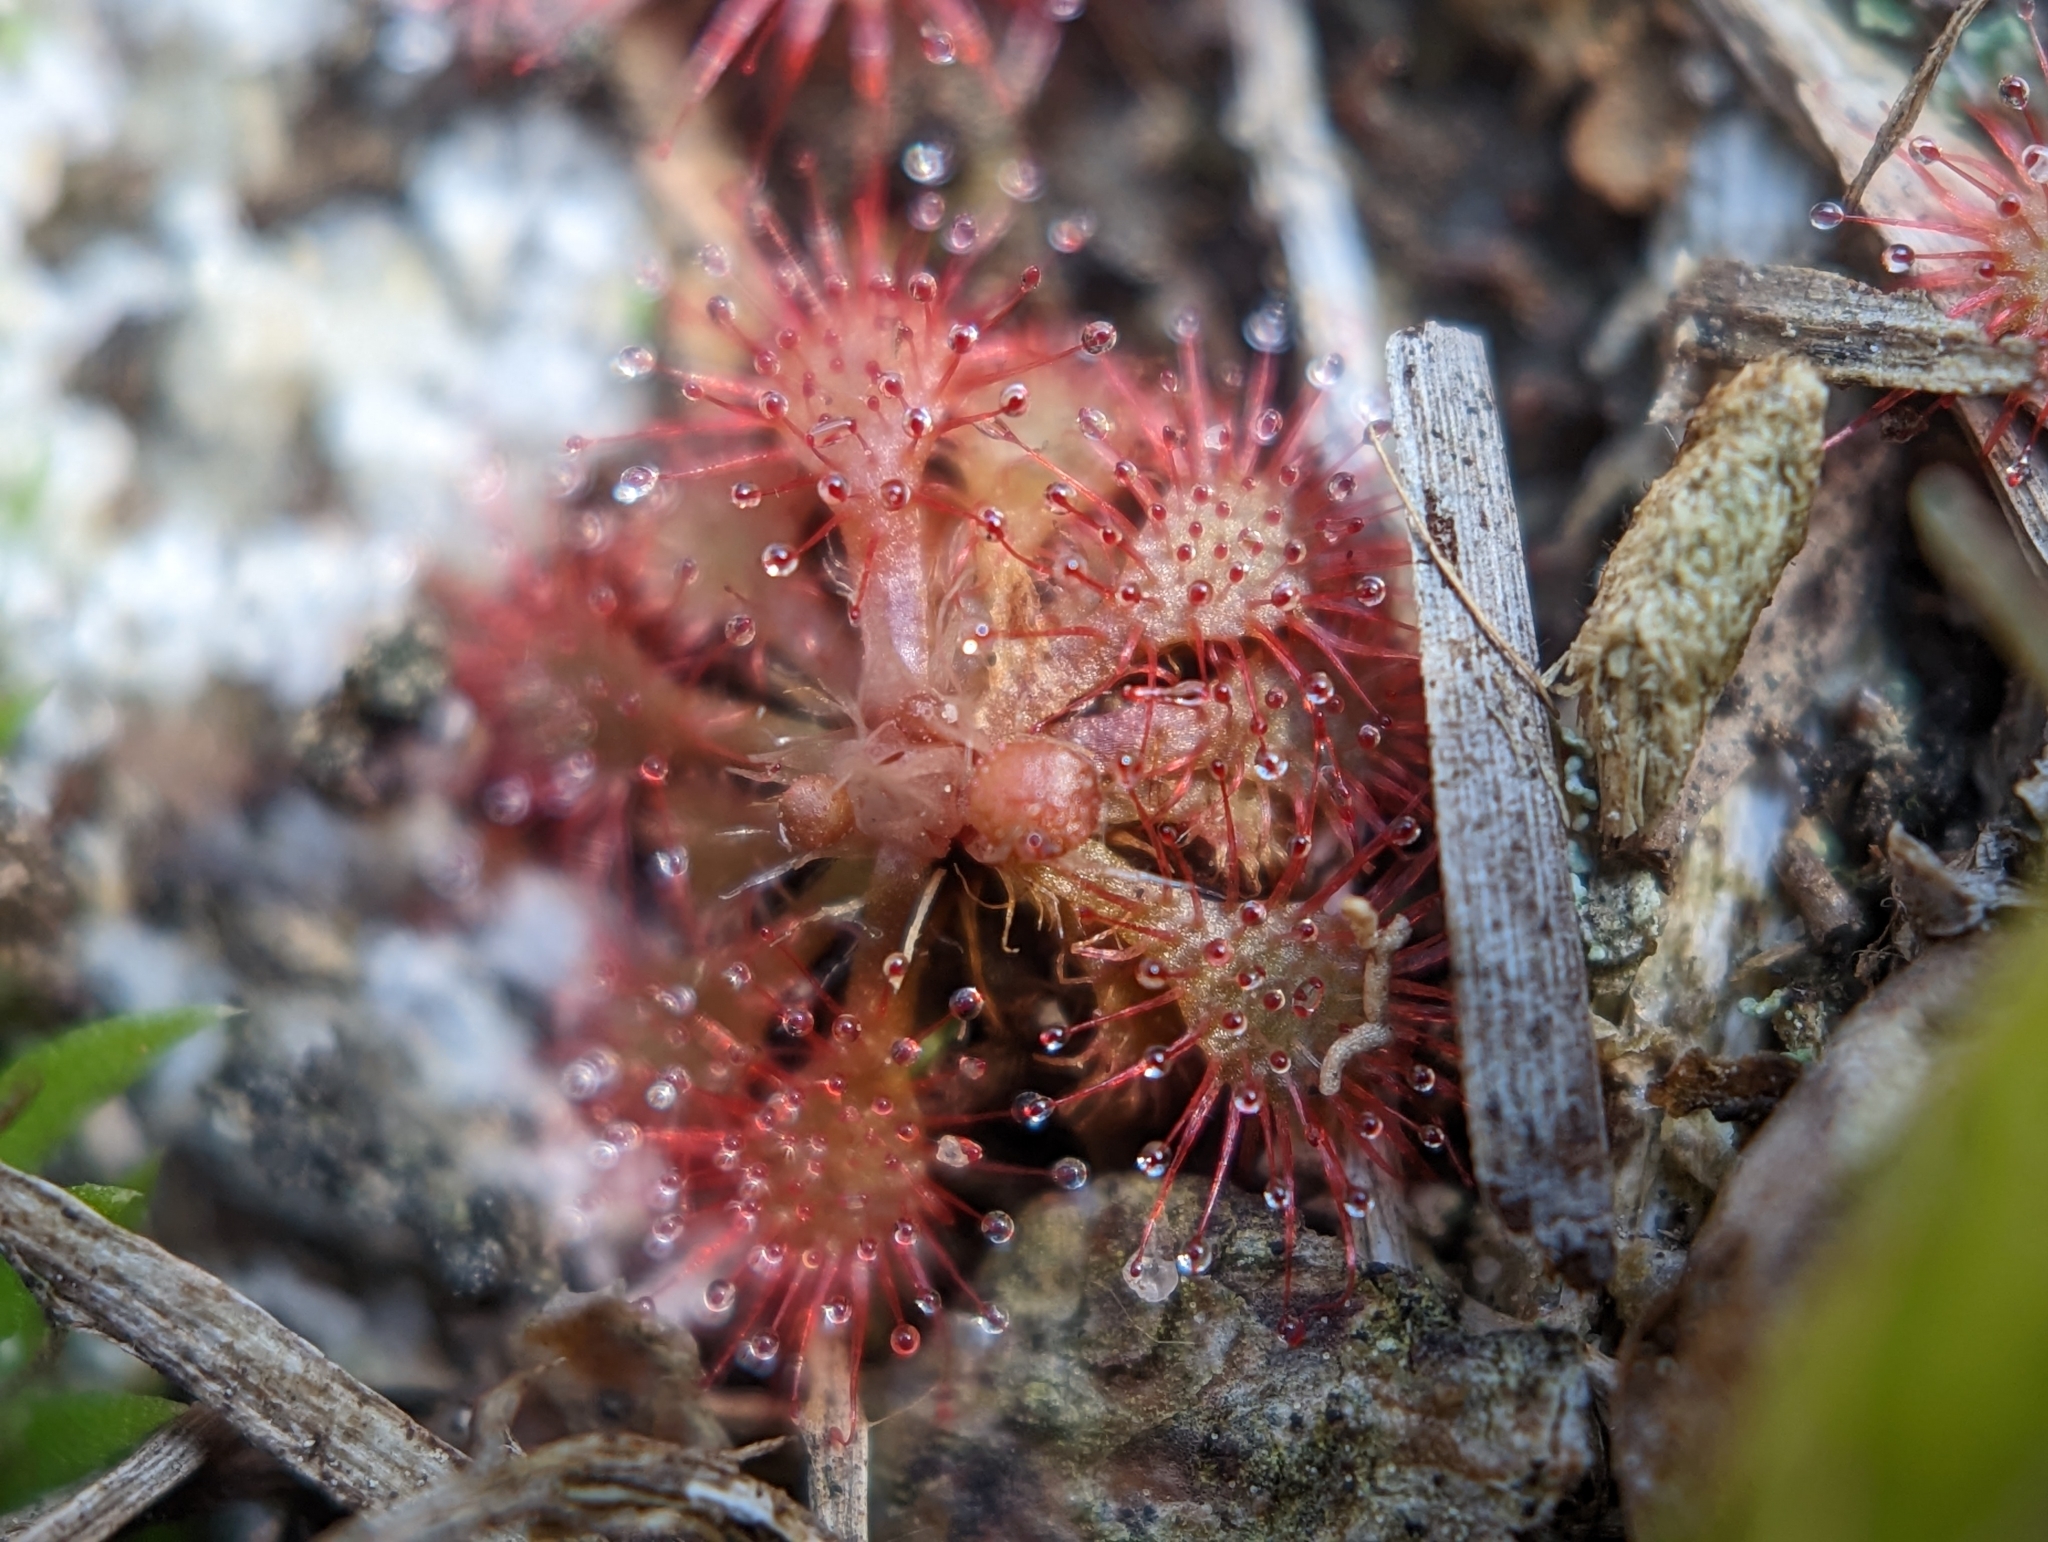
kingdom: Plantae
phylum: Tracheophyta
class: Magnoliopsida
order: Caryophyllales
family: Droseraceae
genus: Drosera
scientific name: Drosera brevifolia
